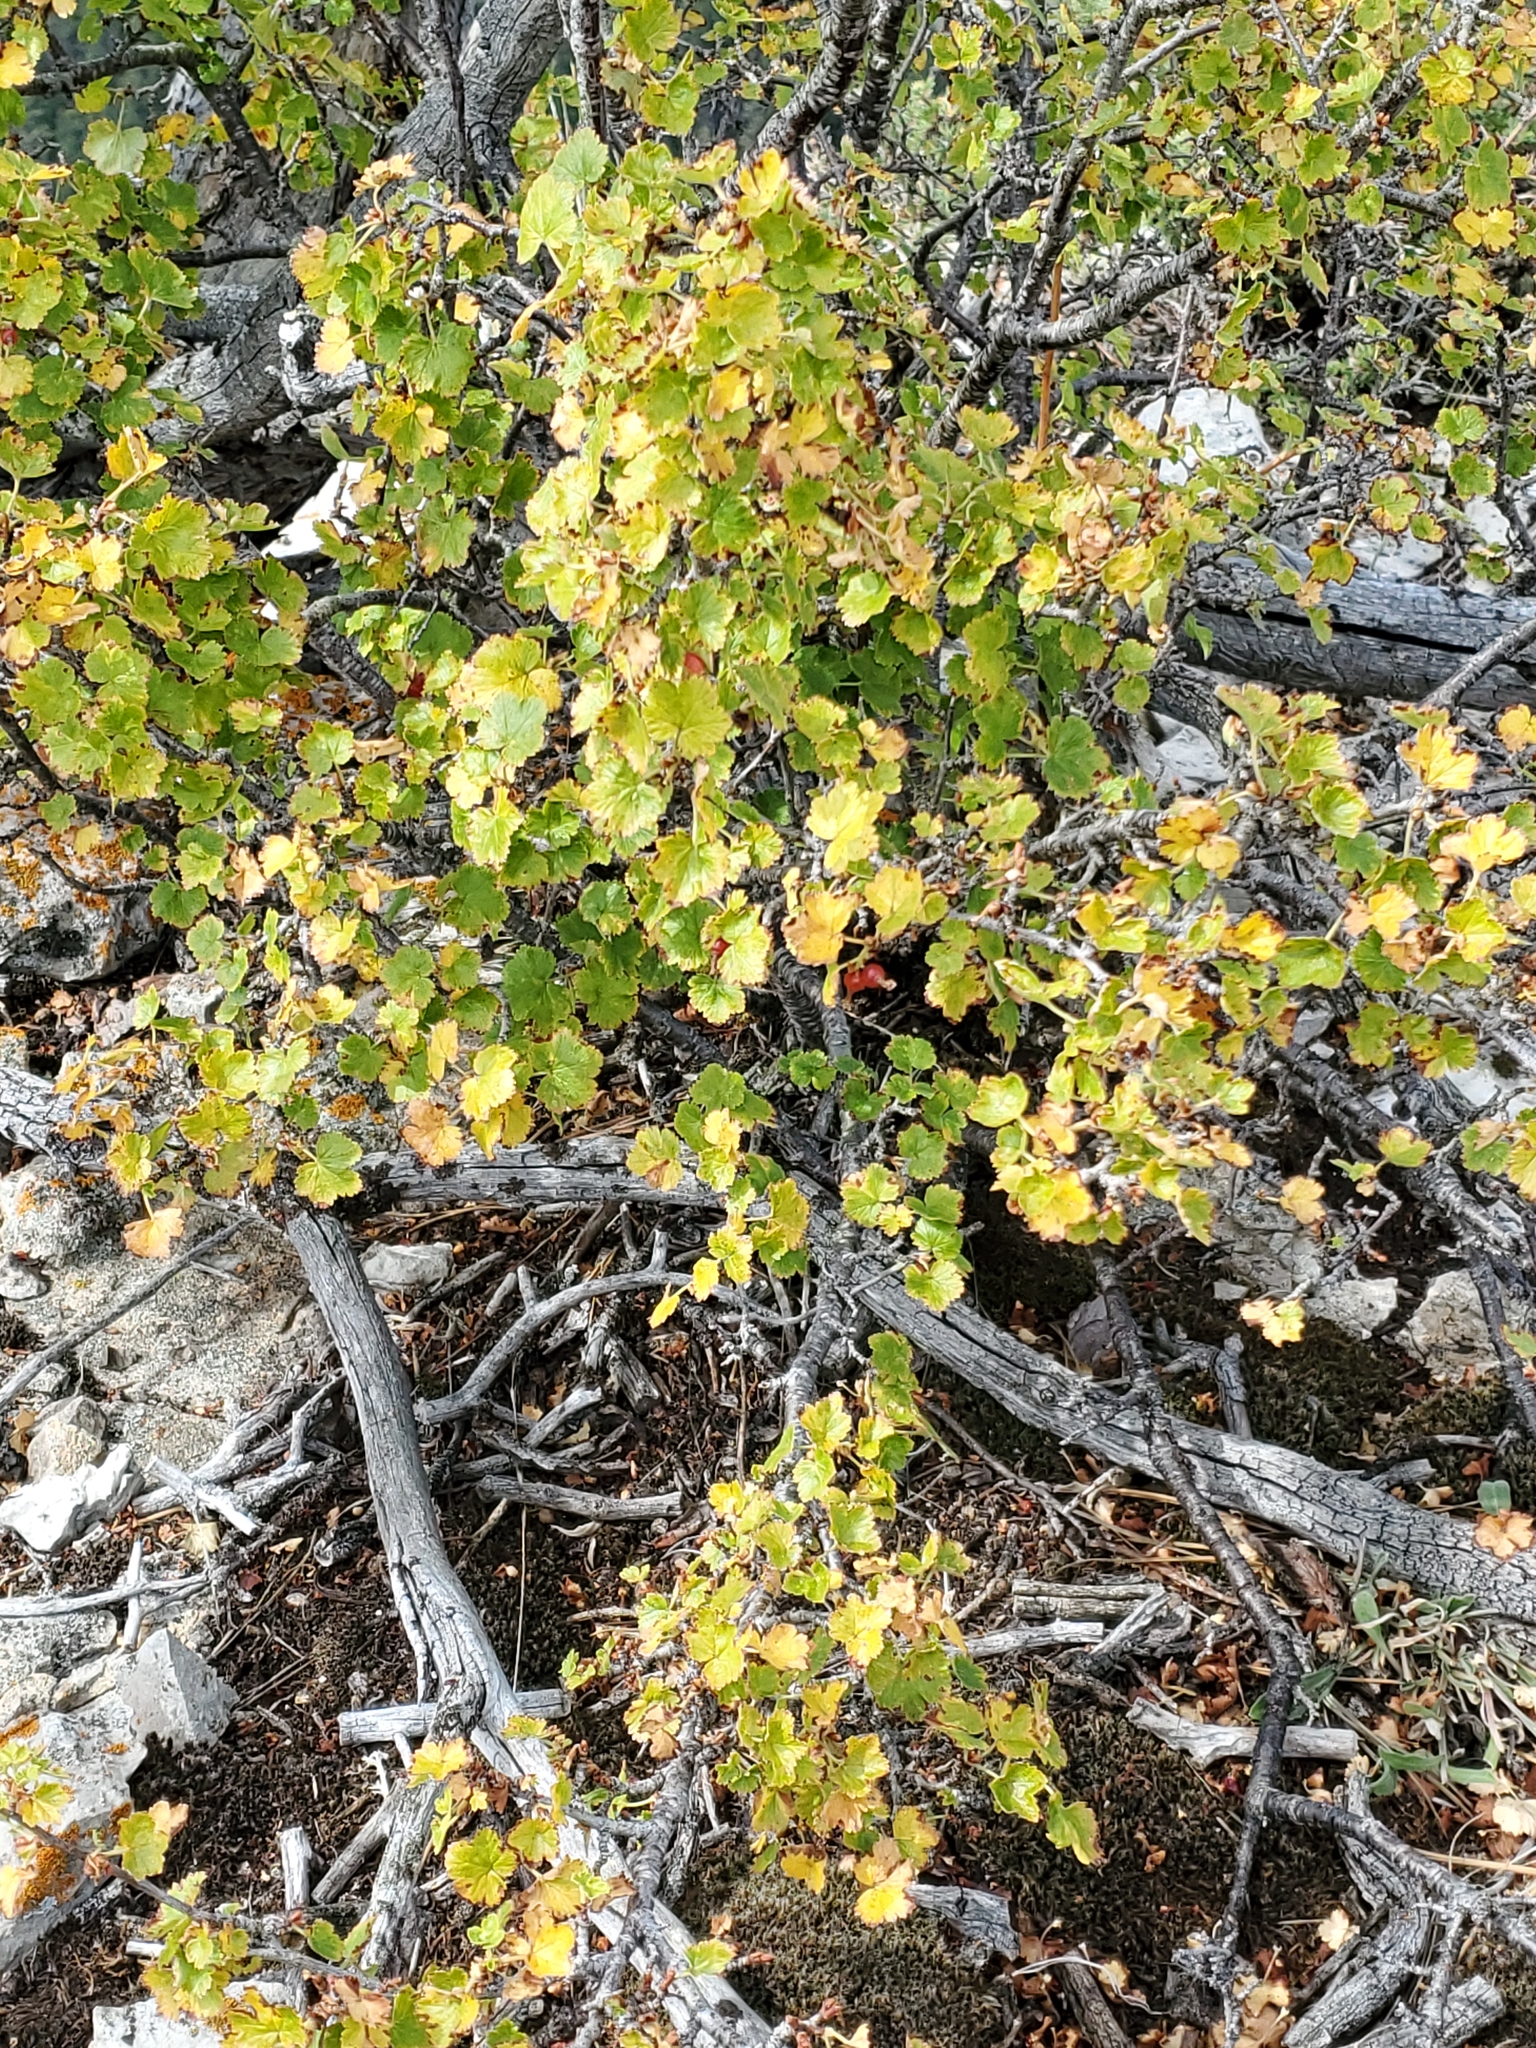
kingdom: Plantae
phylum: Tracheophyta
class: Magnoliopsida
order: Saxifragales
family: Grossulariaceae
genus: Ribes
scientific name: Ribes cereum
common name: Wax currant
